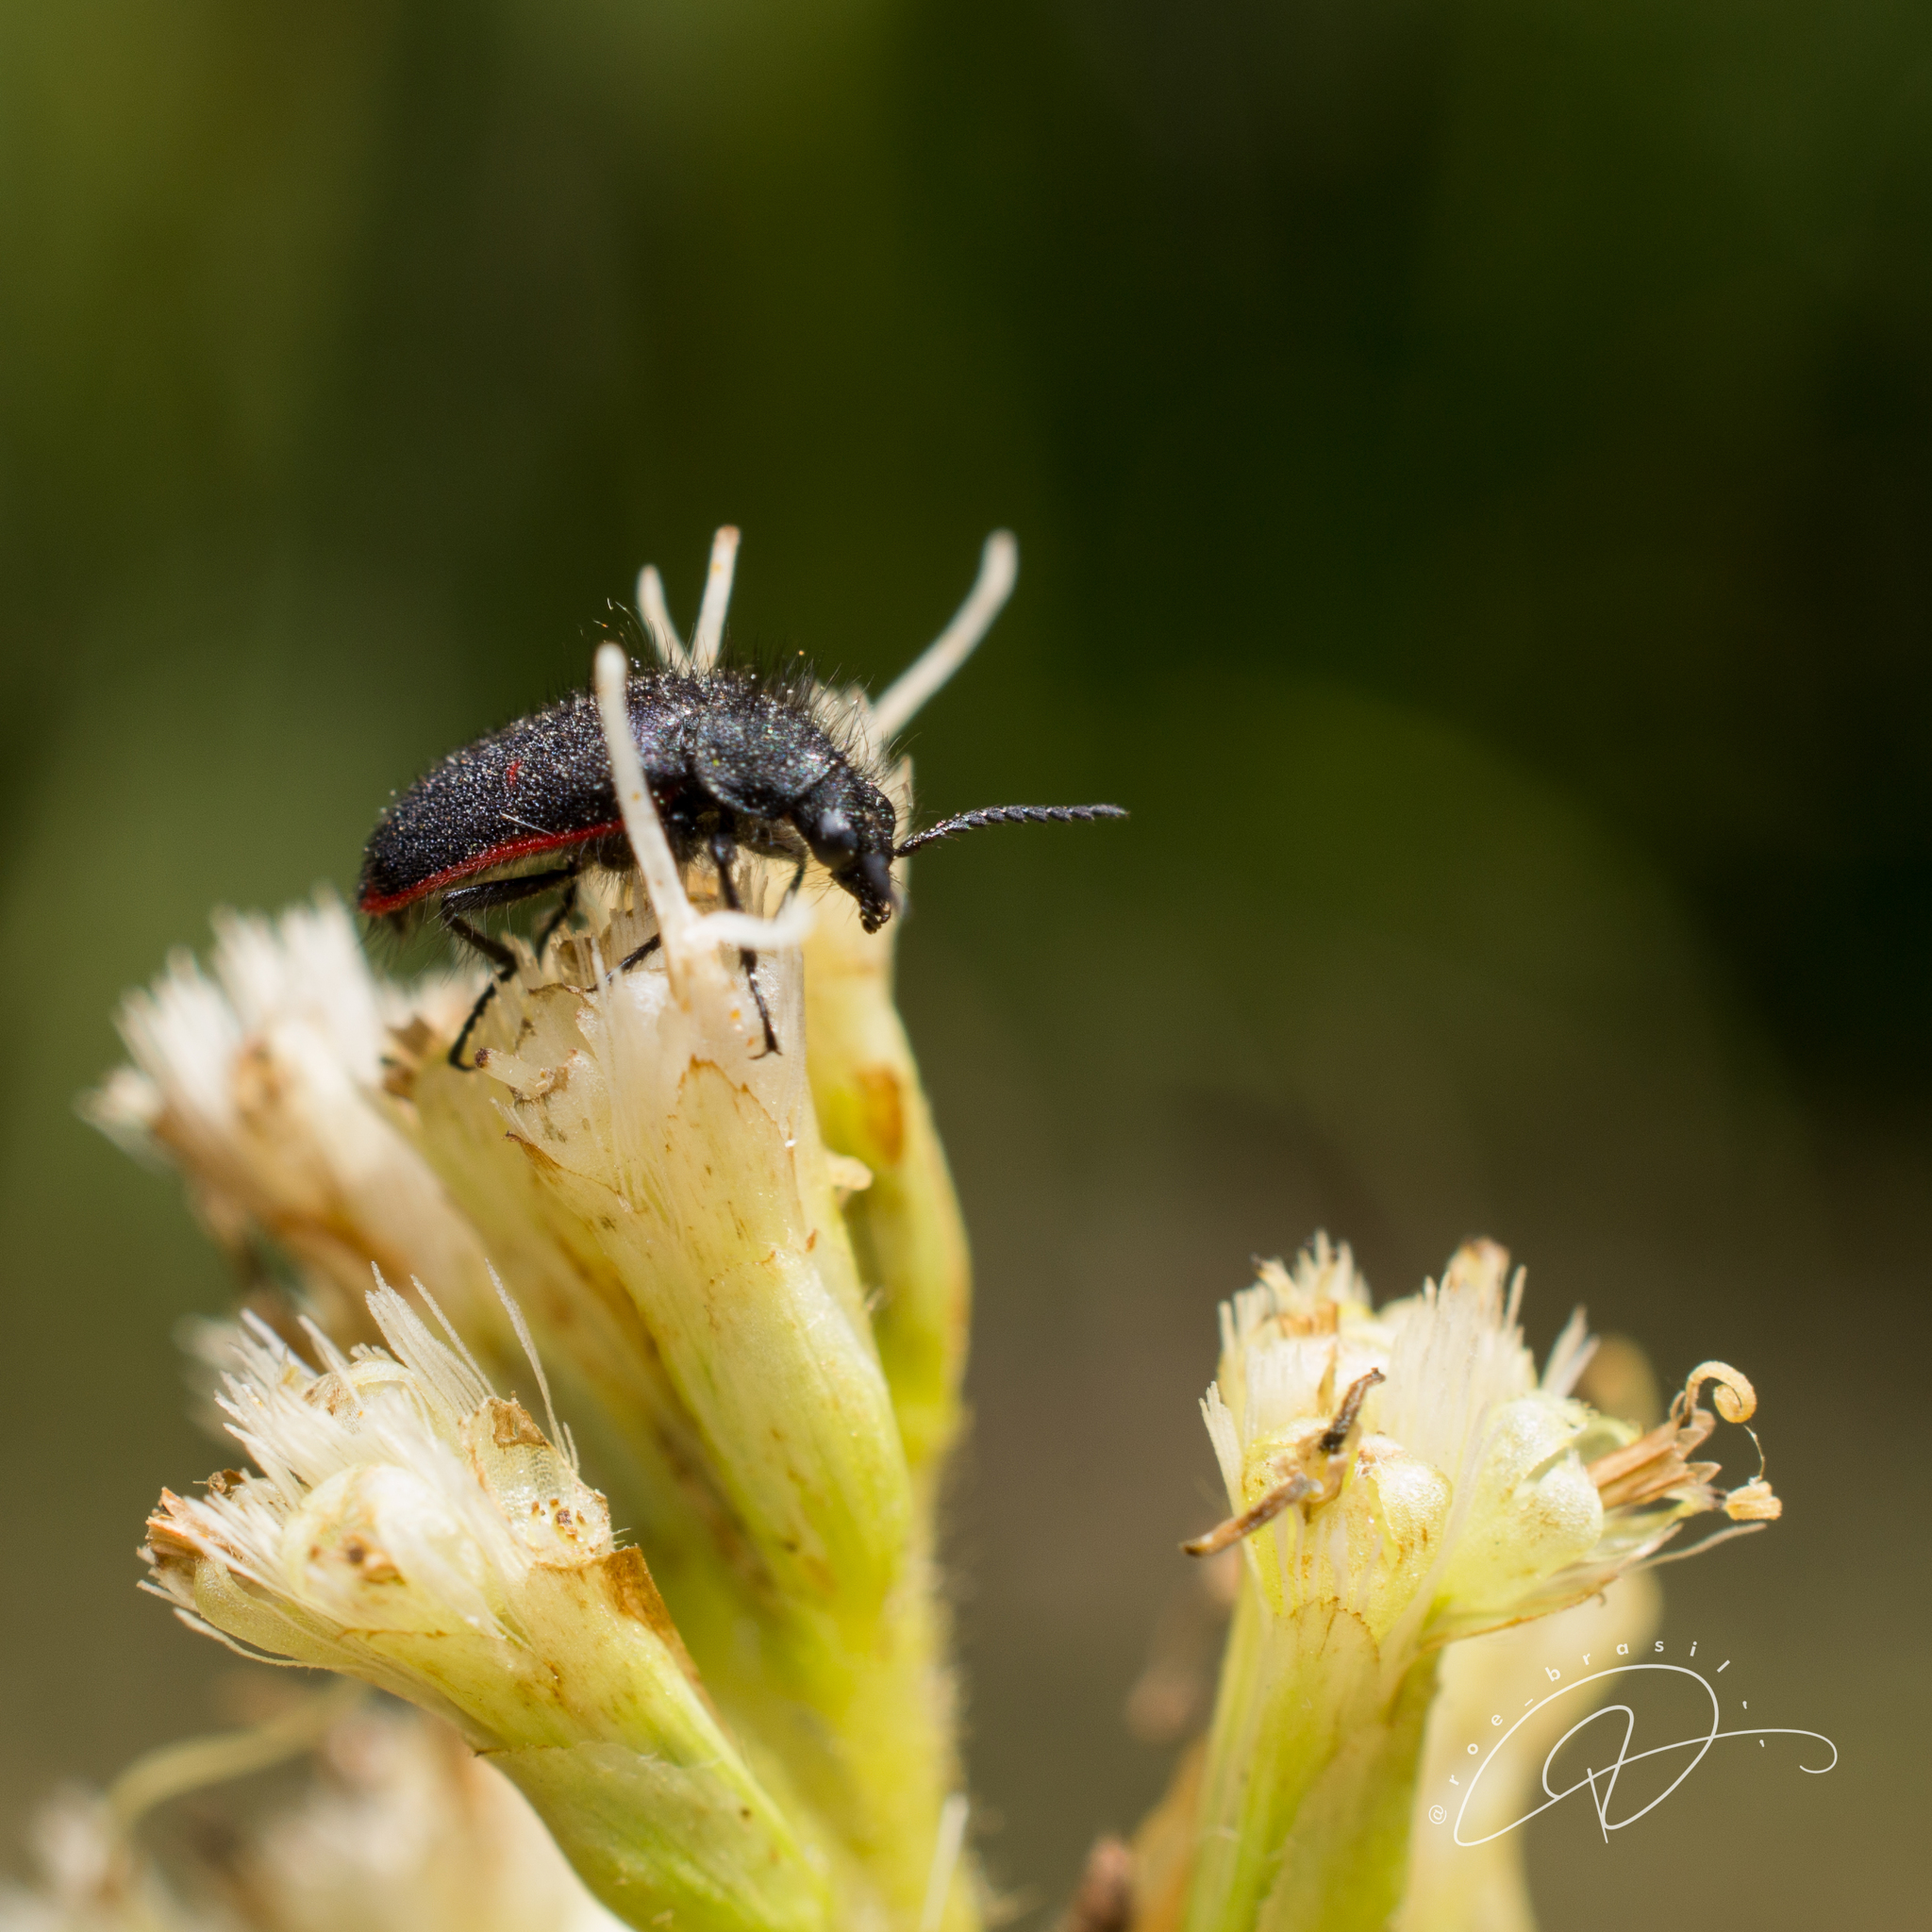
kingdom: Animalia
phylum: Arthropoda
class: Insecta
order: Coleoptera
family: Melyridae
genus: Astylus
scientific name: Astylus
